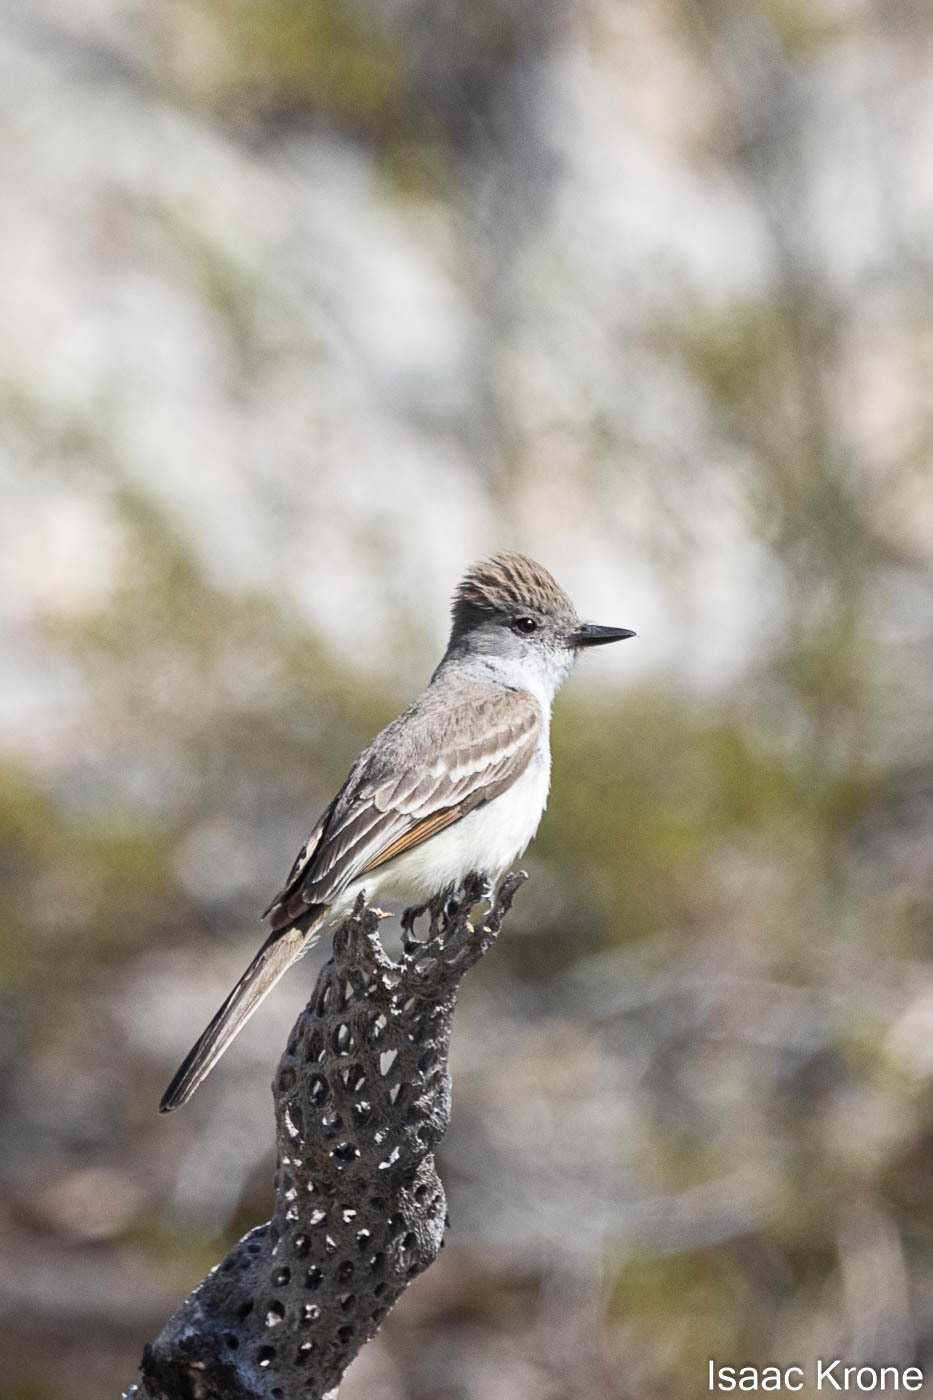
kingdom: Animalia
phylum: Chordata
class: Aves
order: Passeriformes
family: Tyrannidae
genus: Myiarchus
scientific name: Myiarchus cinerascens
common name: Ash-throated flycatcher
